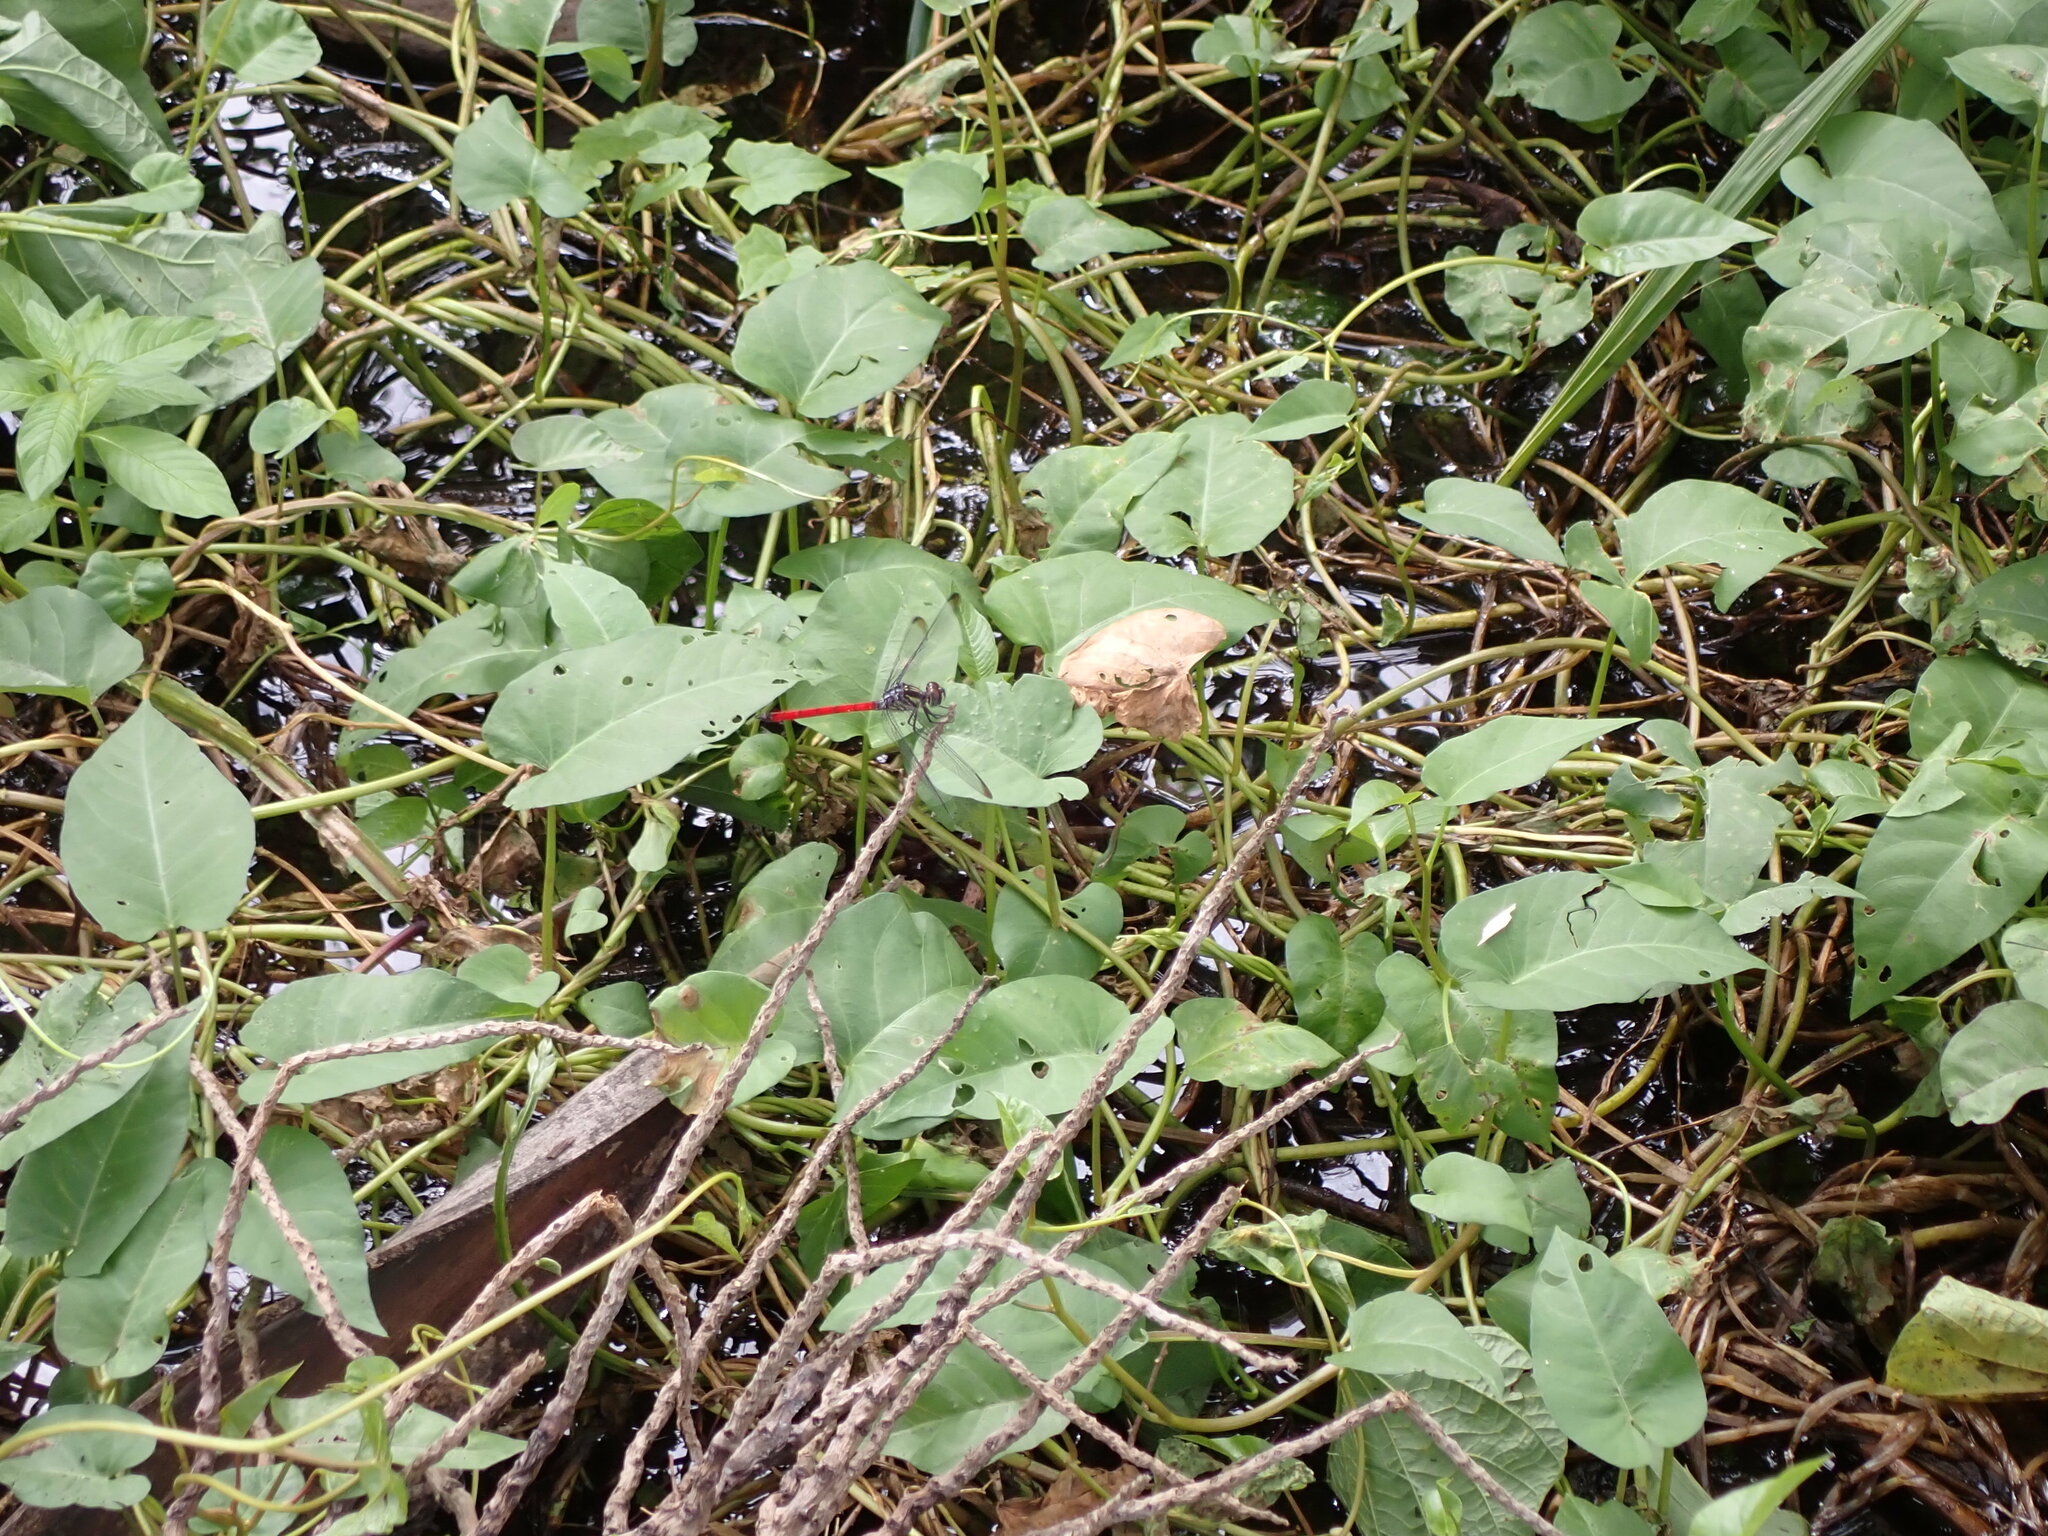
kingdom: Animalia
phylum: Arthropoda
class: Insecta
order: Odonata
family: Libellulidae
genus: Lathrecista
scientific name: Lathrecista asiatica
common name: Scarlet grenadier
